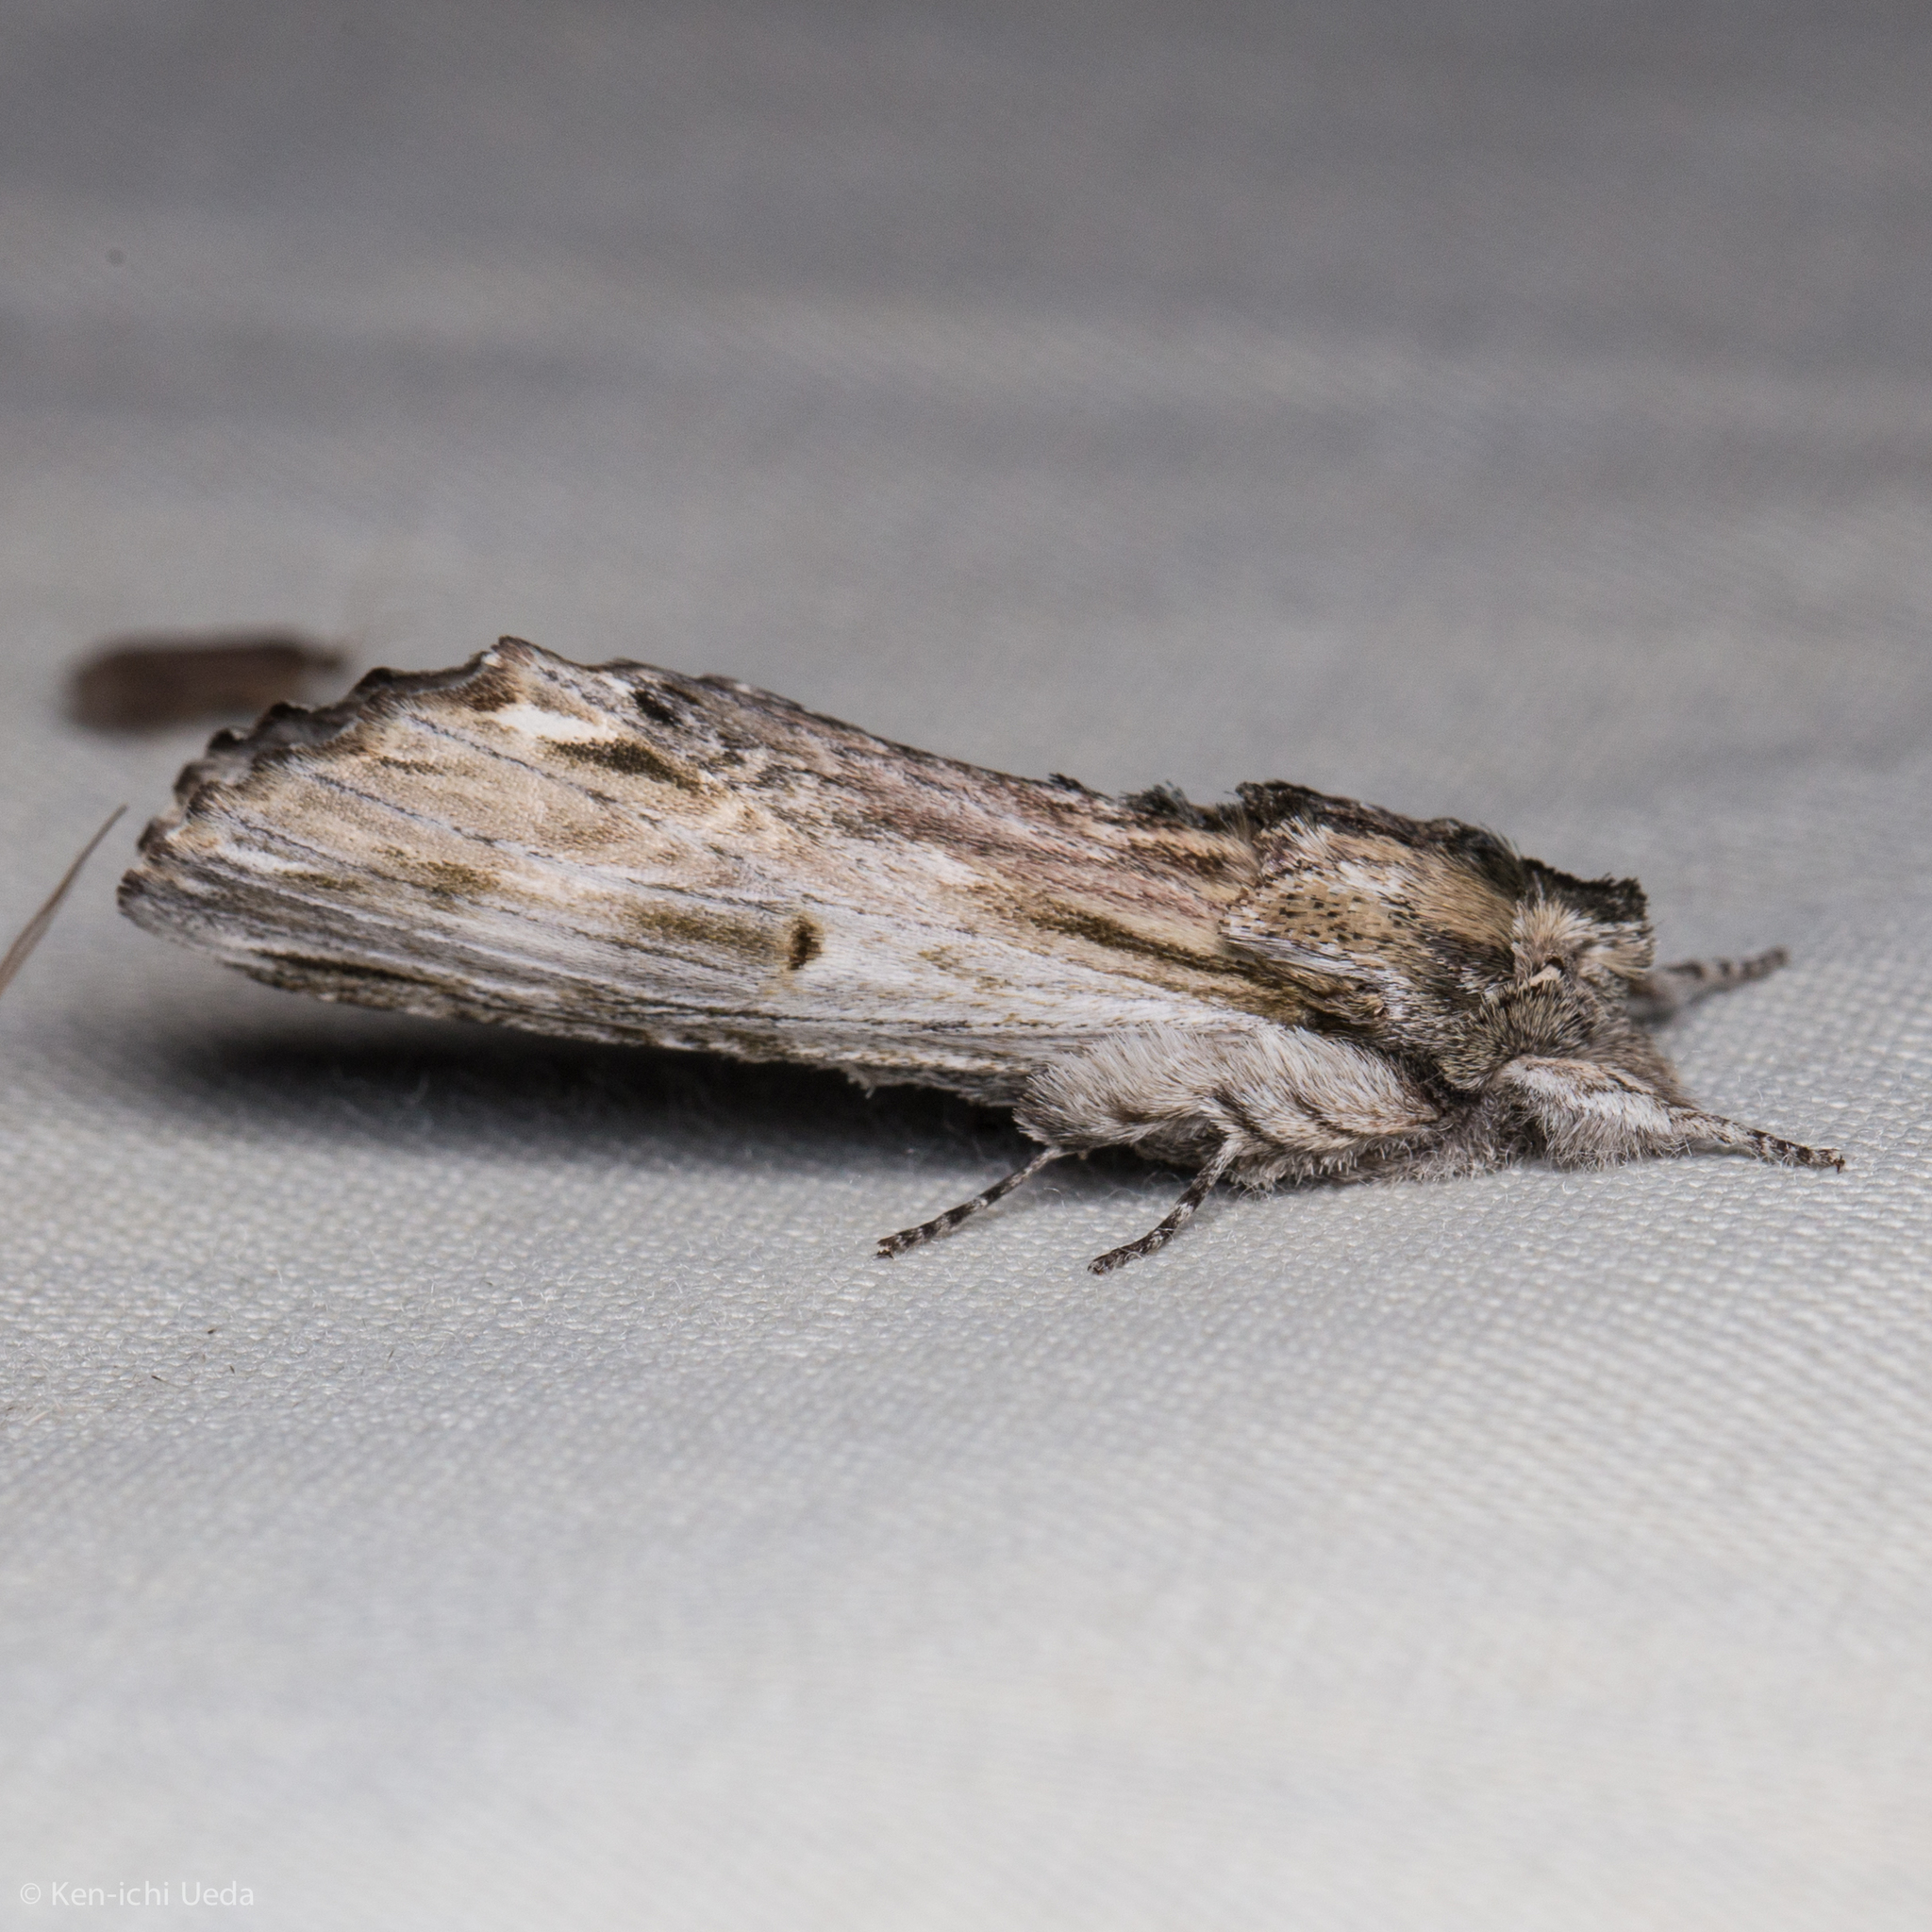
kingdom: Animalia
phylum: Arthropoda
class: Insecta
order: Lepidoptera
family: Notodontidae
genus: Oligocentria
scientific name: Oligocentria Ianassa lignicolor
